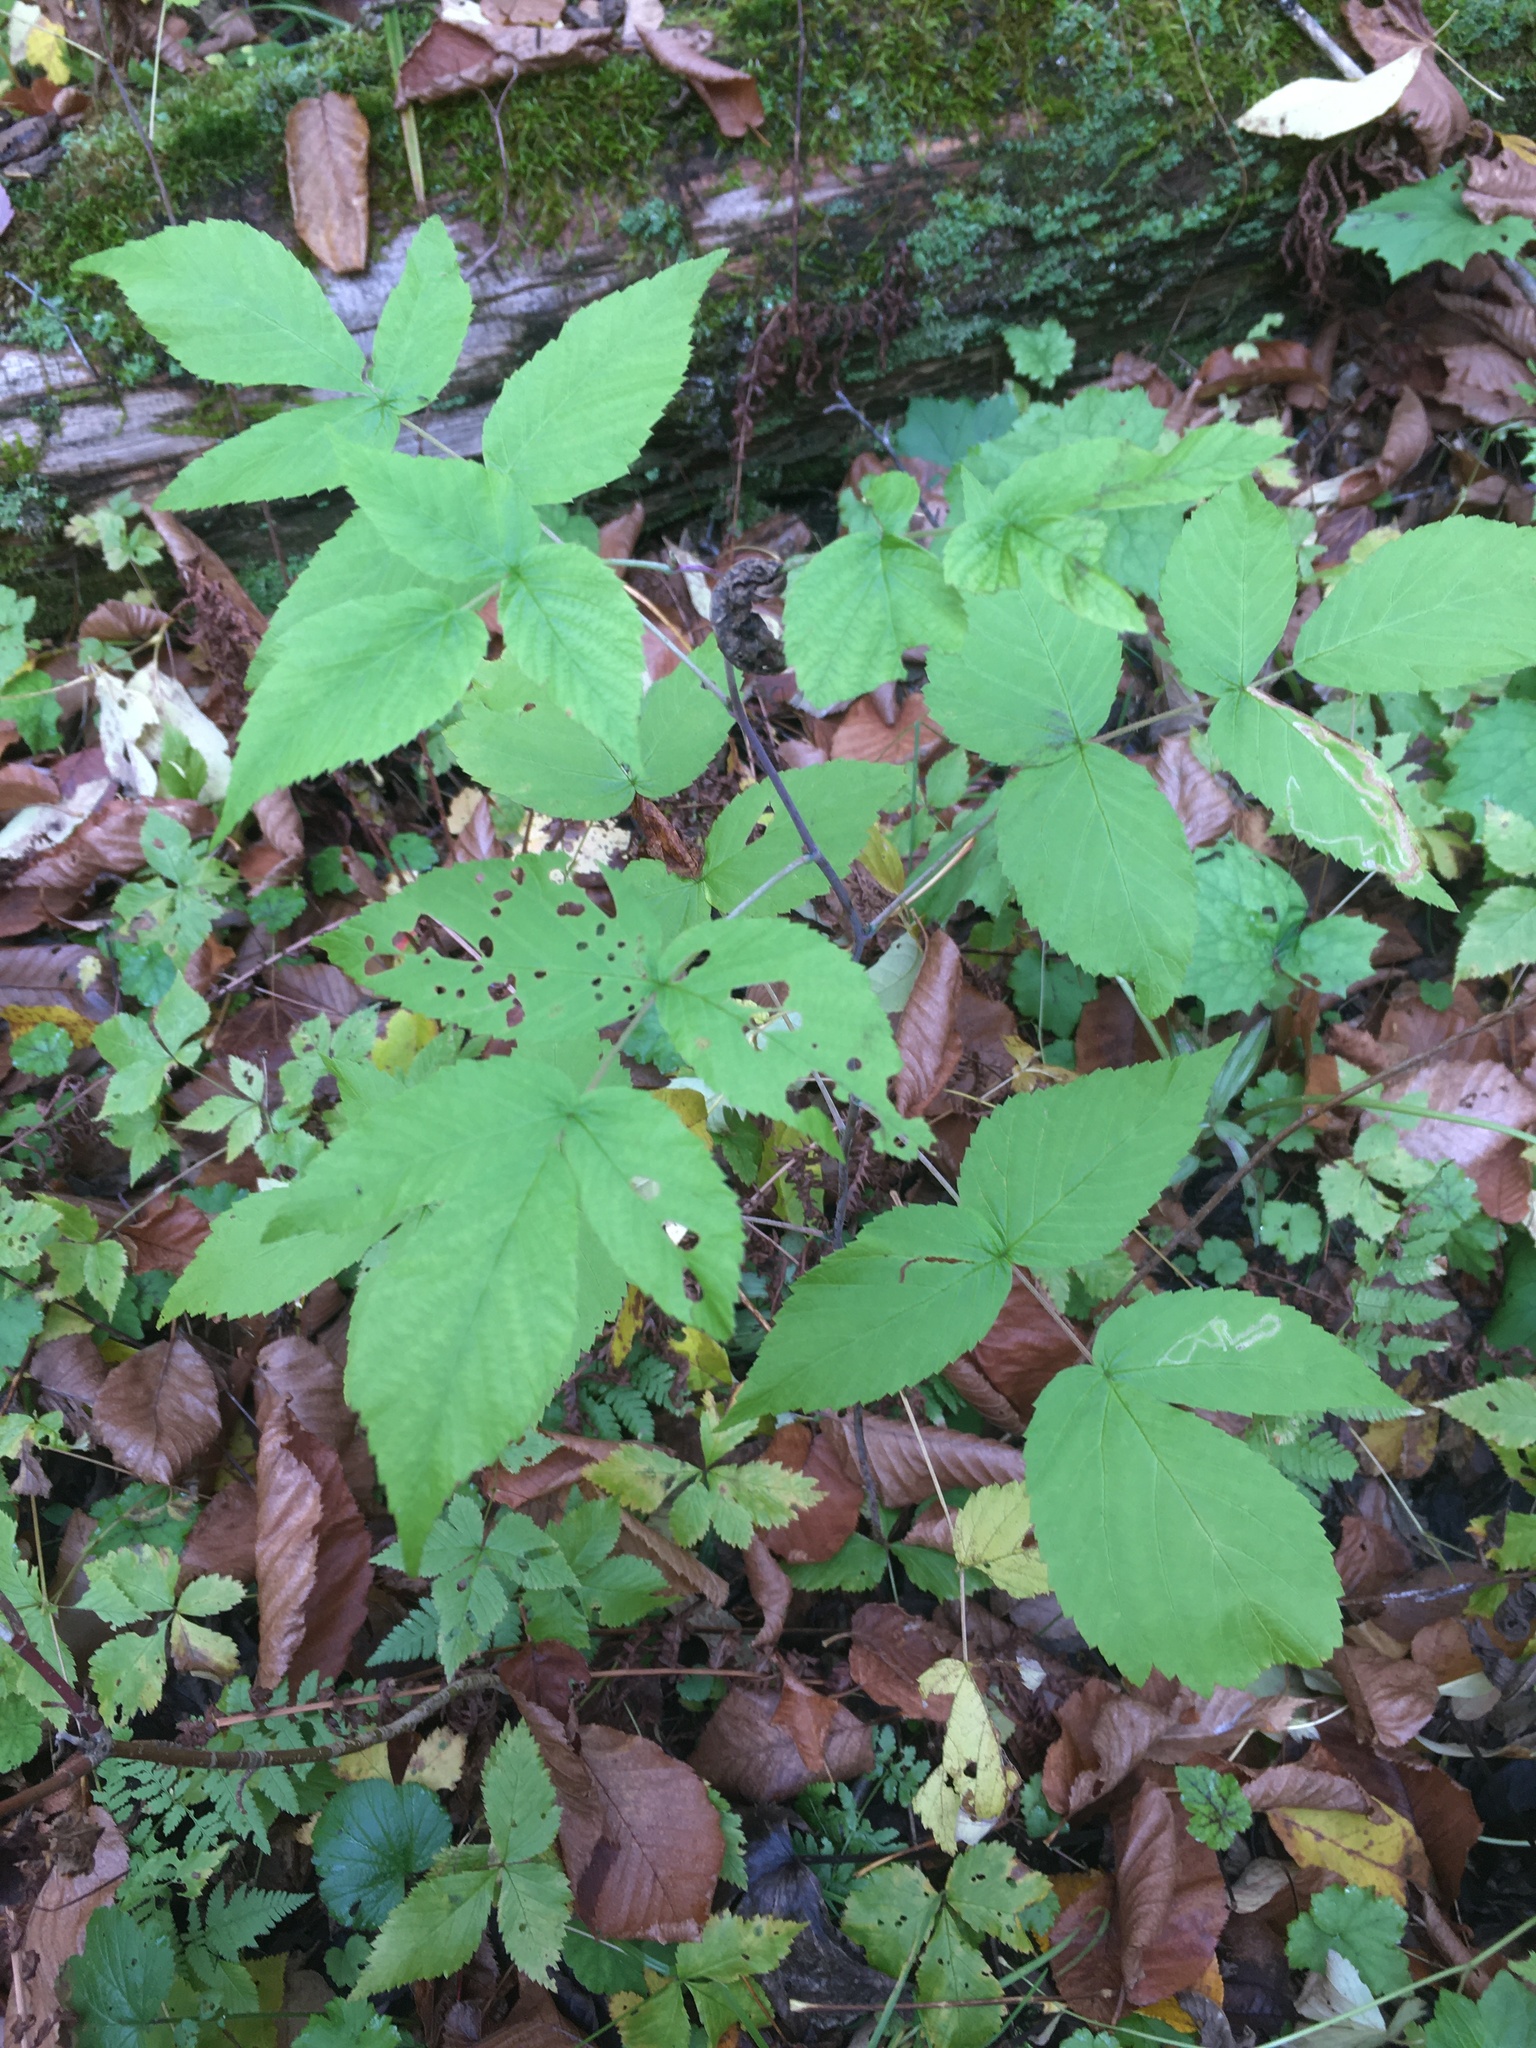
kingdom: Plantae
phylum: Tracheophyta
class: Magnoliopsida
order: Rosales
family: Rosaceae
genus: Rubus
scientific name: Rubus occidentalis
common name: Black raspberry
